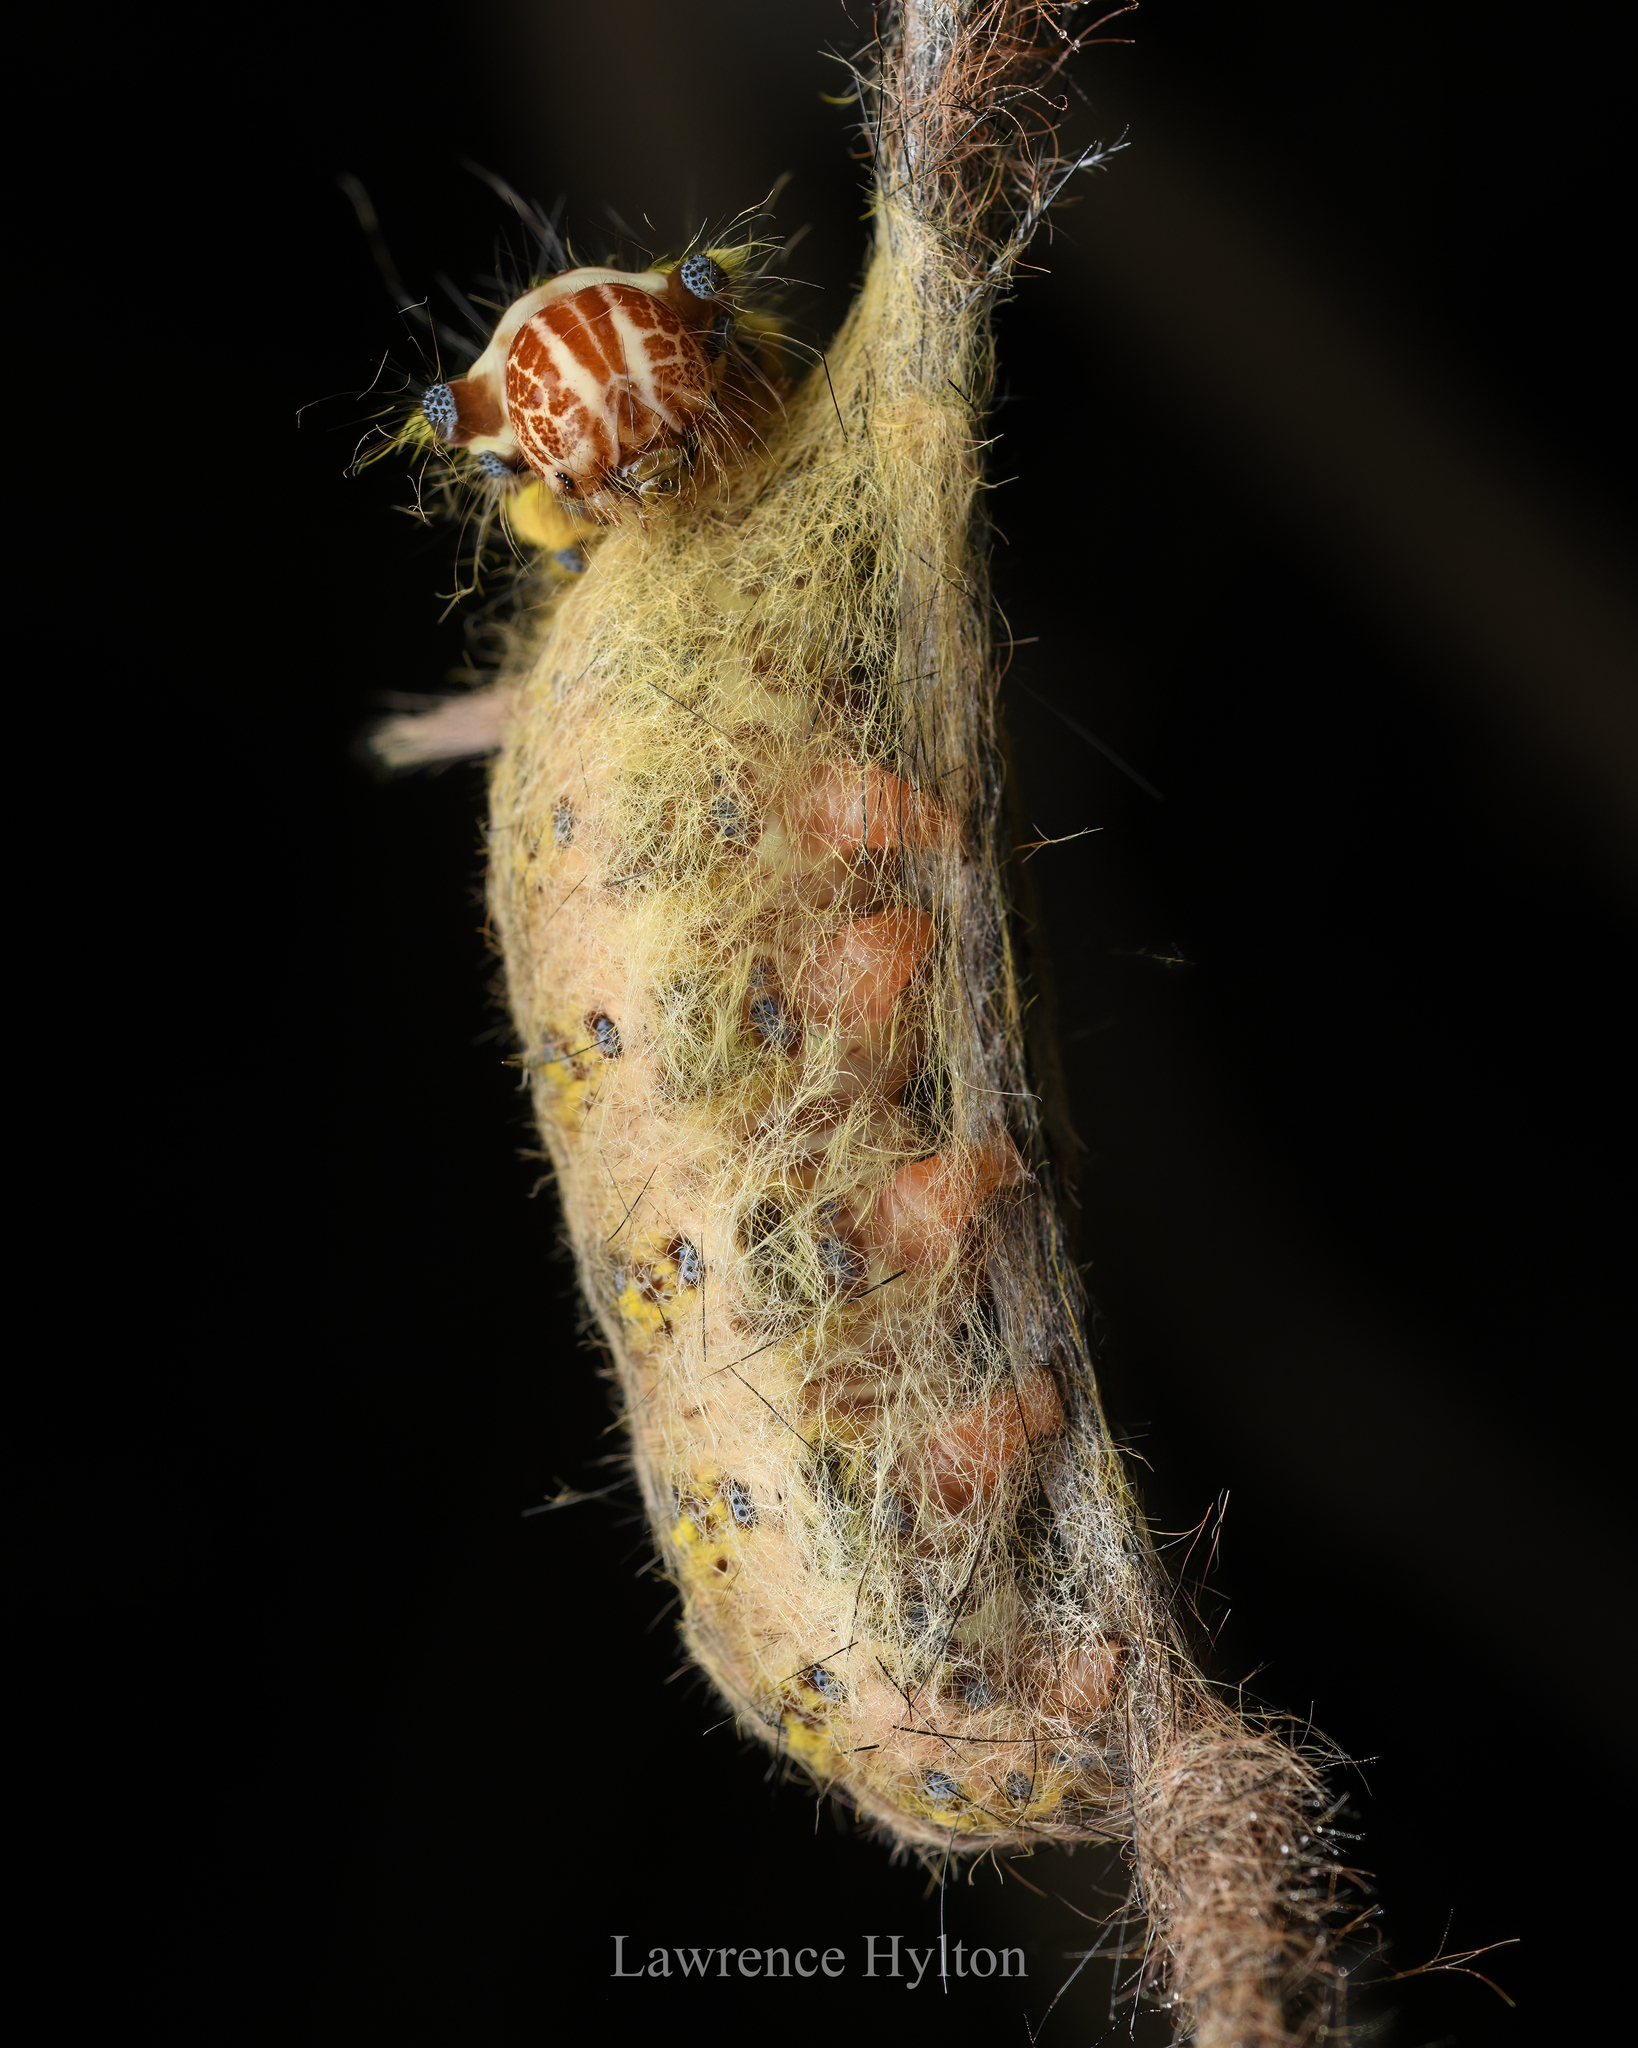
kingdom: Animalia
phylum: Arthropoda
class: Insecta
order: Lepidoptera
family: Lasiocampidae
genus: Trabala
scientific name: Trabala pallida
